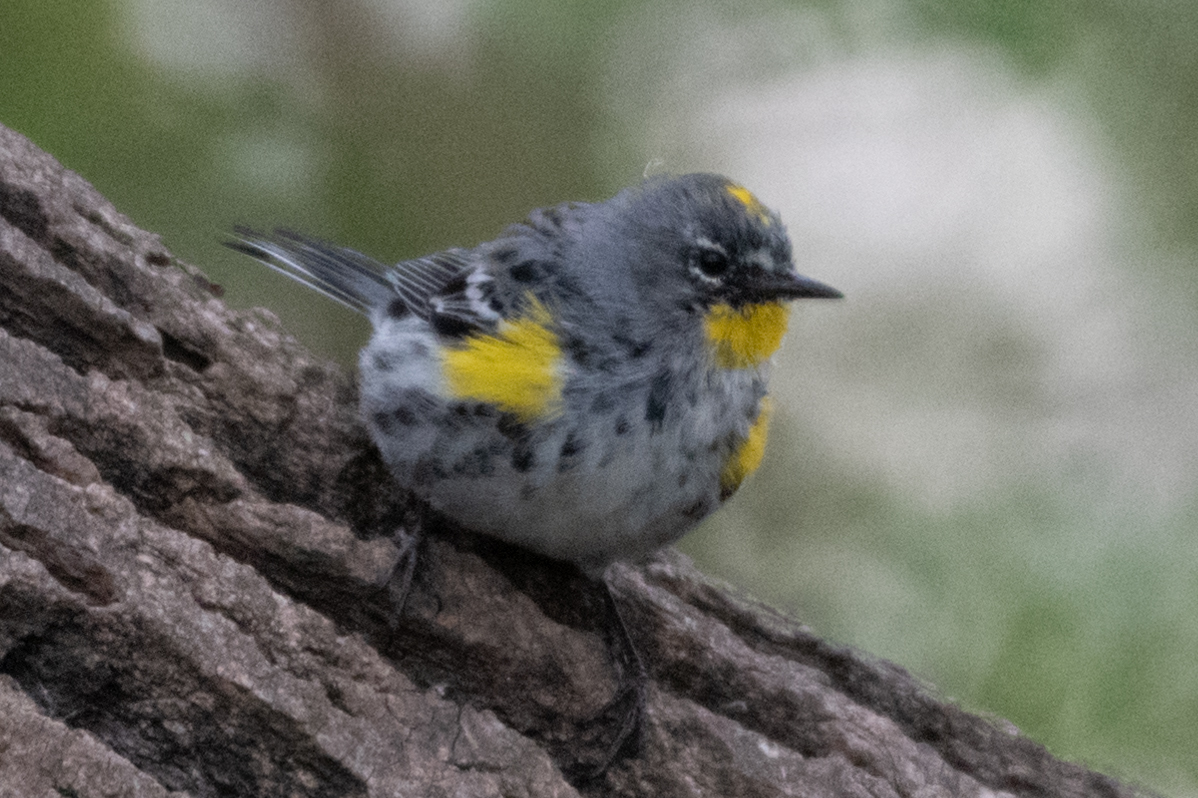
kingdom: Animalia
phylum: Chordata
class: Aves
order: Passeriformes
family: Parulidae
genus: Setophaga
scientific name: Setophaga auduboni
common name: Audubon's warbler
